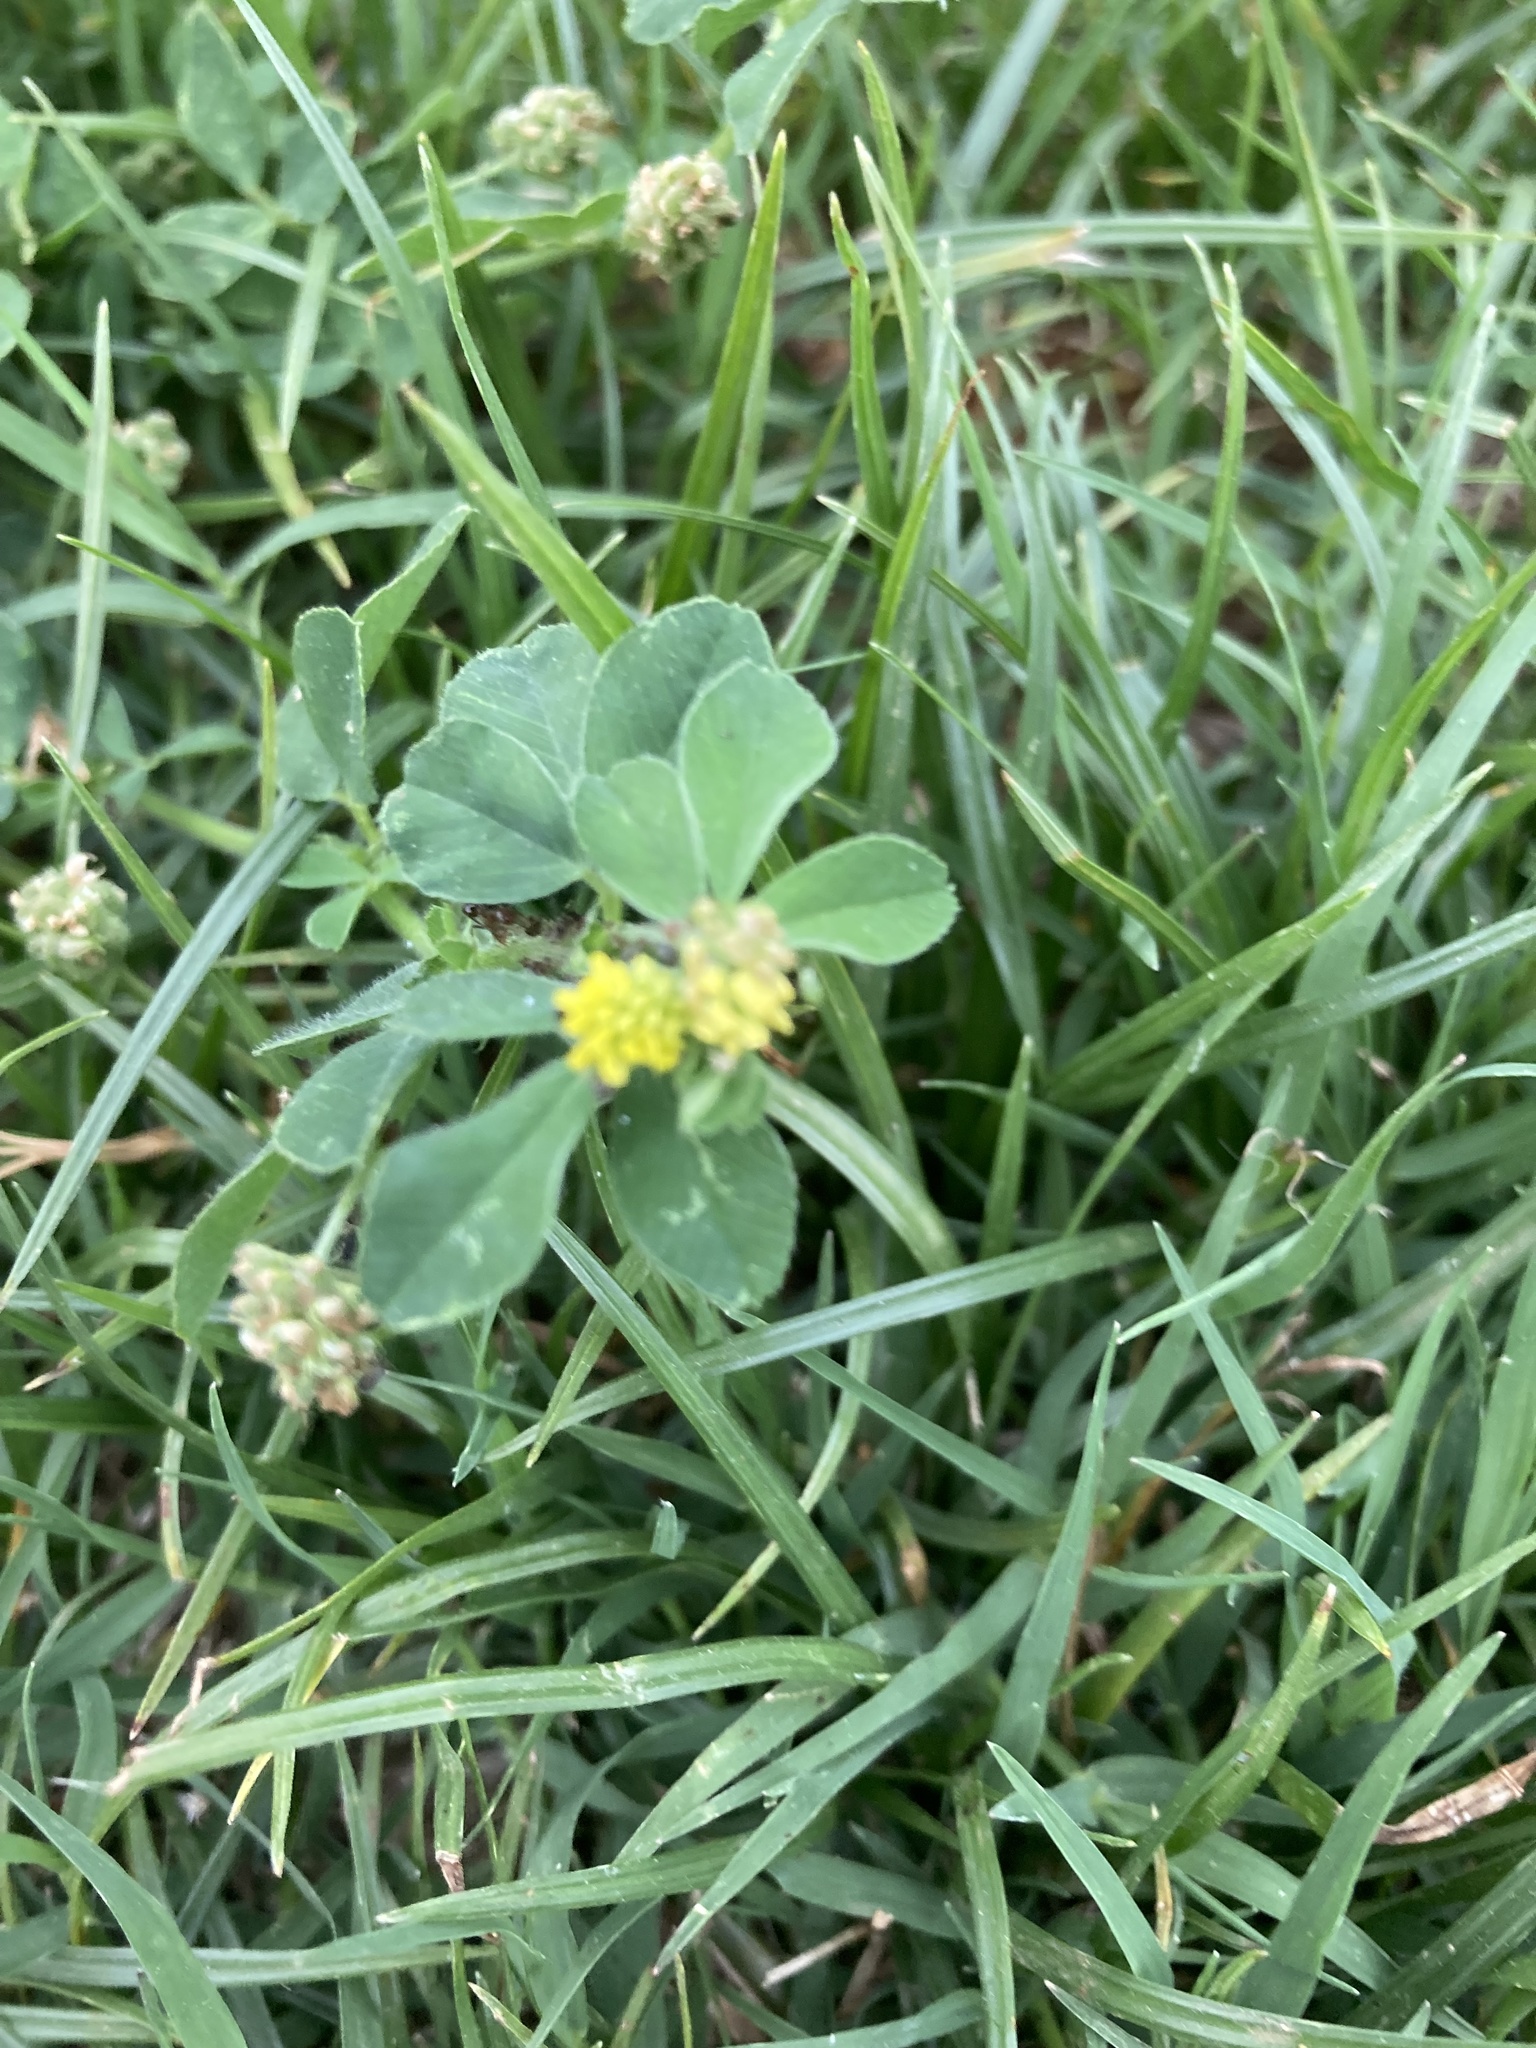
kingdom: Plantae
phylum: Tracheophyta
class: Magnoliopsida
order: Fabales
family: Fabaceae
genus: Medicago
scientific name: Medicago lupulina
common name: Black medick
